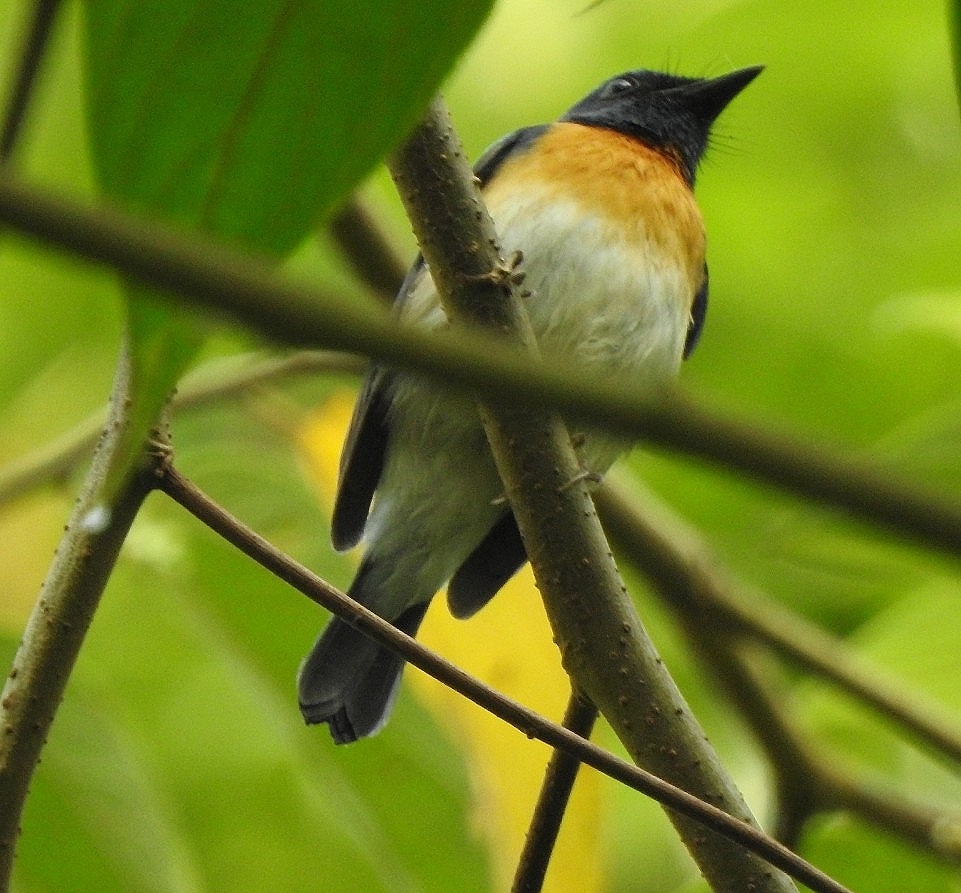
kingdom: Animalia
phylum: Chordata
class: Aves
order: Passeriformes
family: Muscicapidae
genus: Cyornis
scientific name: Cyornis rubeculoides
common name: Blue-throated blue flycatcher
